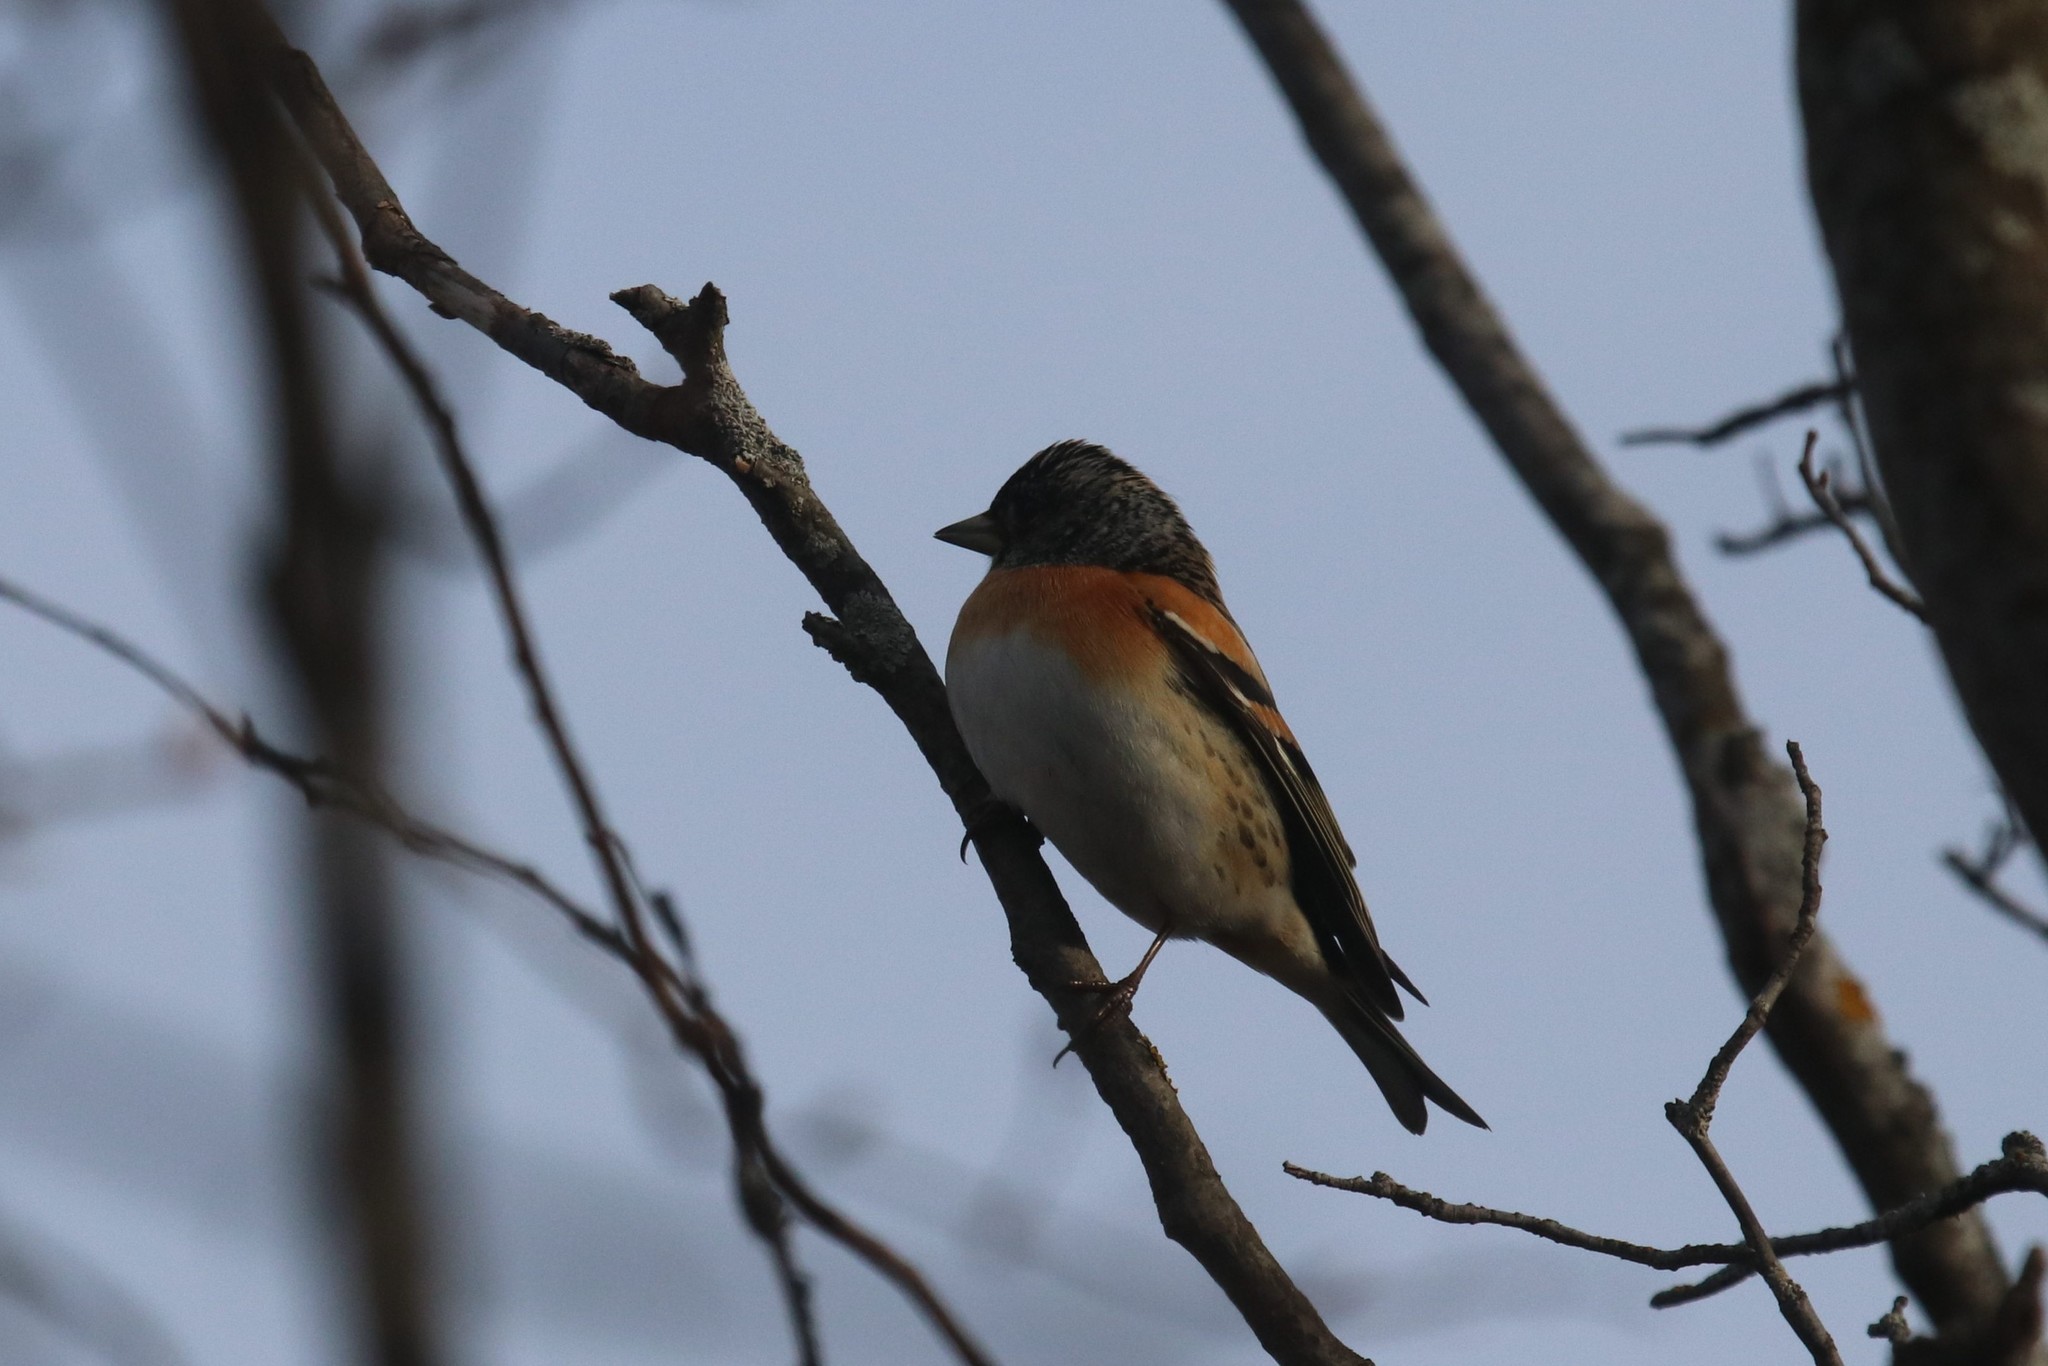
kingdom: Animalia
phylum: Chordata
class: Aves
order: Passeriformes
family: Fringillidae
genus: Fringilla
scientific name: Fringilla montifringilla
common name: Brambling
